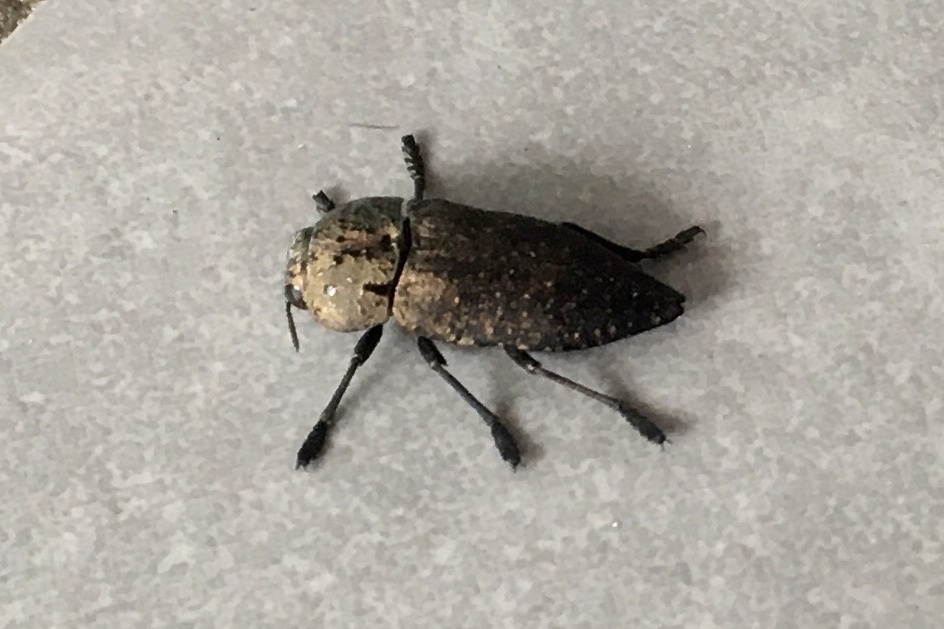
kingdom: Animalia
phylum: Arthropoda
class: Insecta
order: Coleoptera
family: Buprestidae
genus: Capnodis
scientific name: Capnodis tenebricosa
